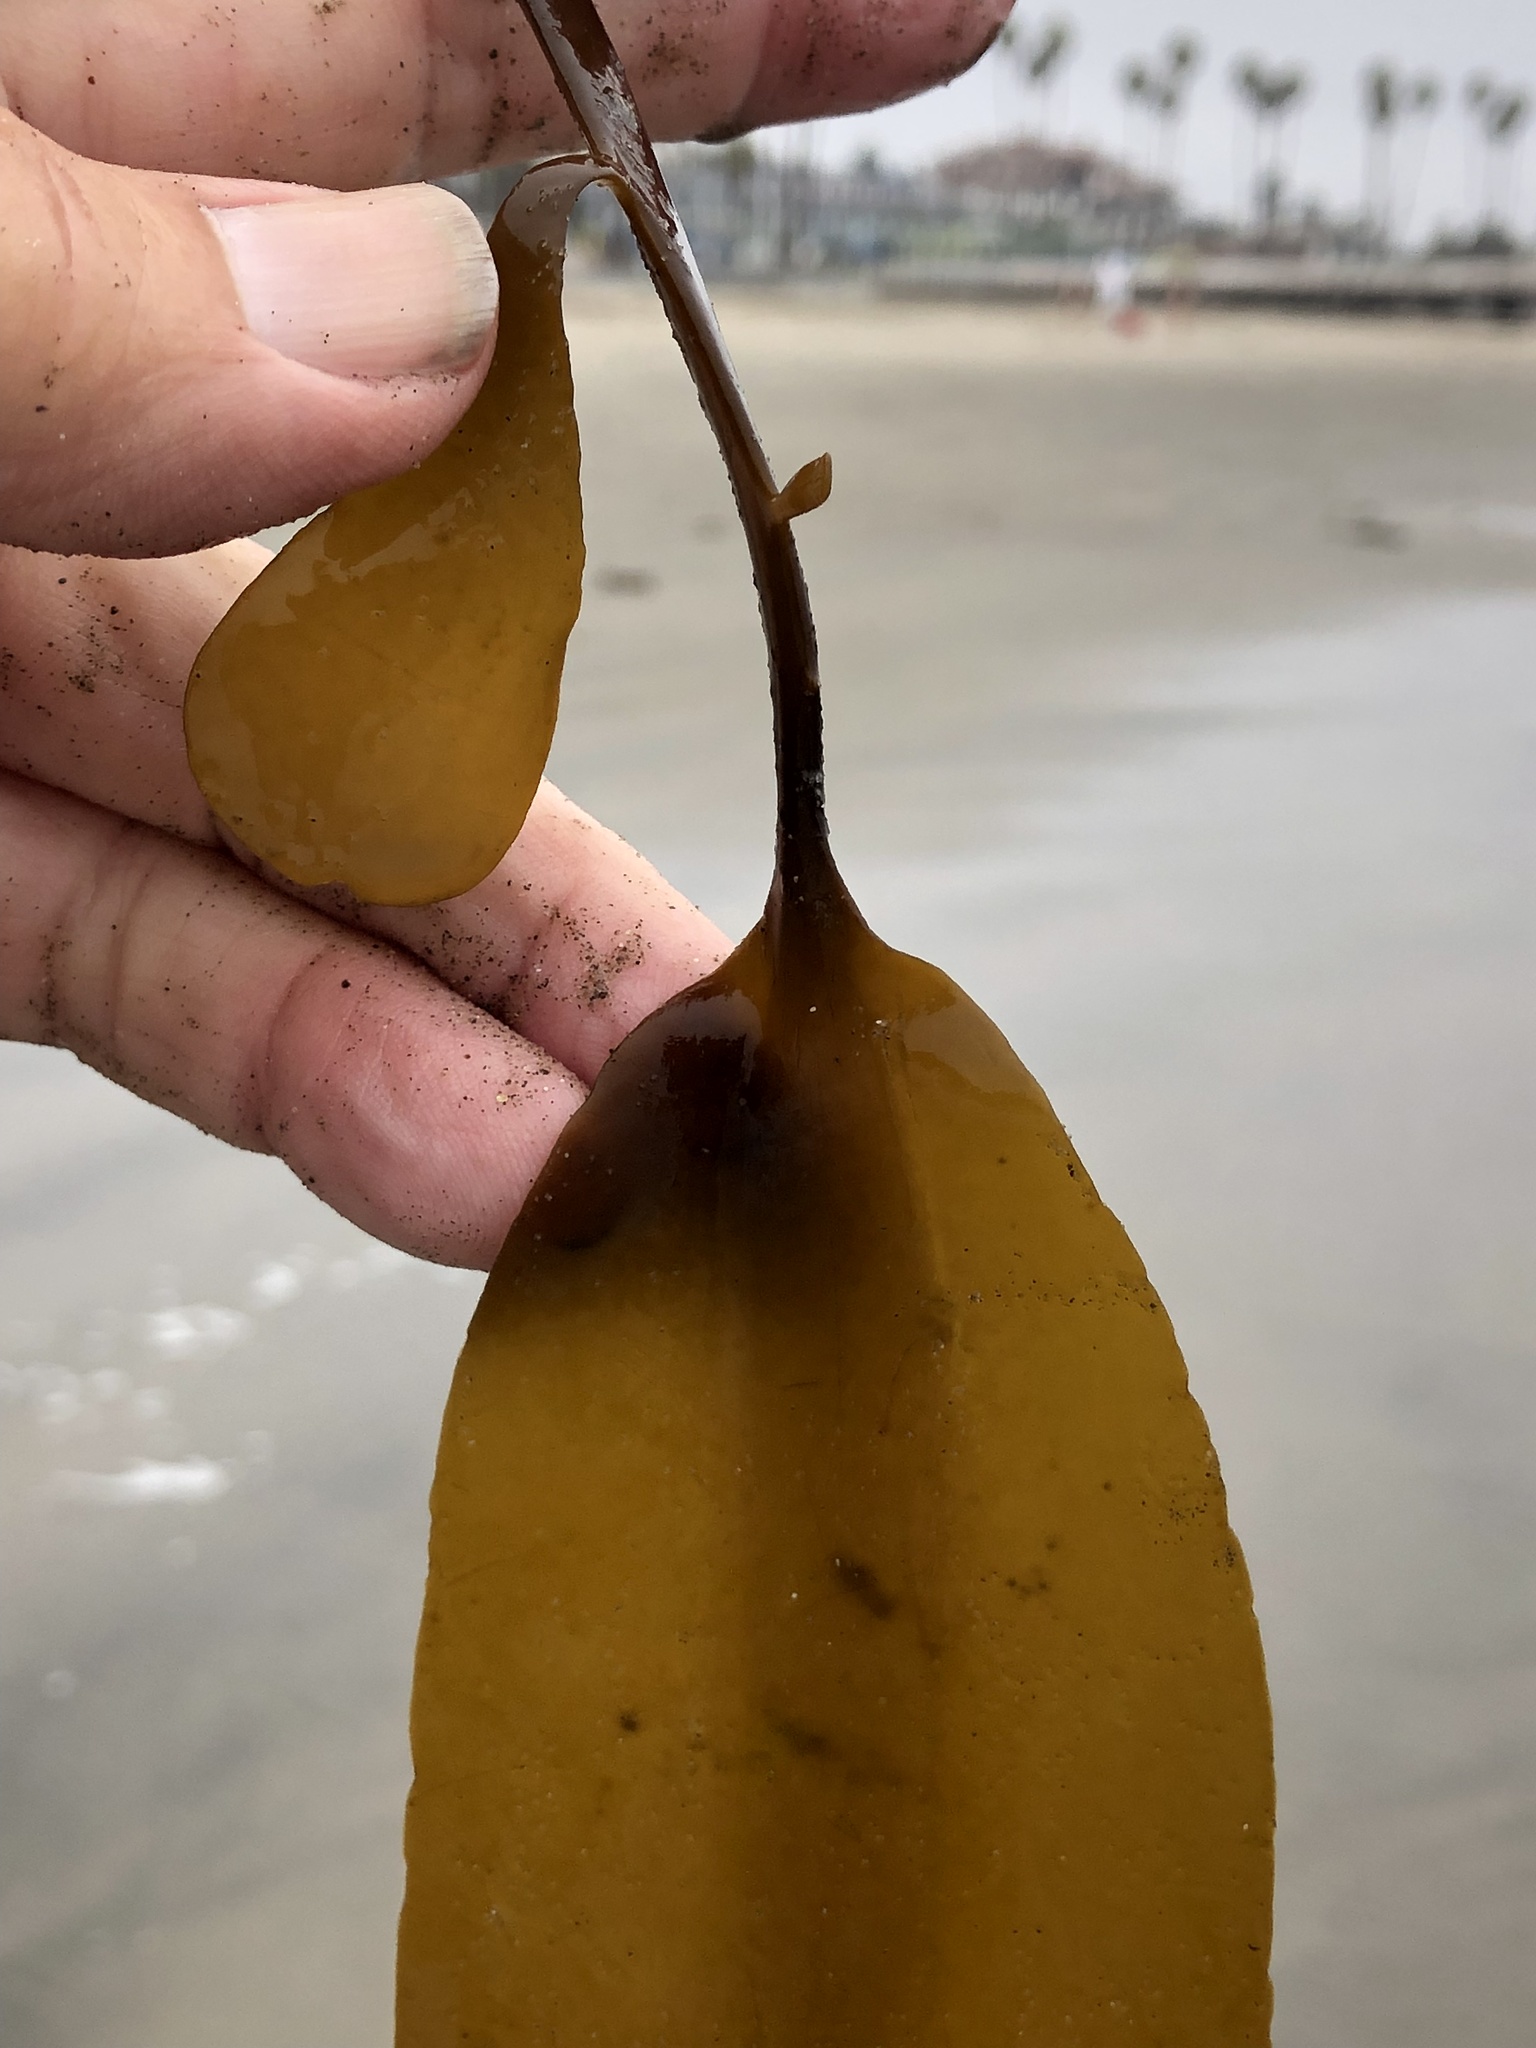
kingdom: Chromista
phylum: Ochrophyta
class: Phaeophyceae
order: Laminariales
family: Alariaceae
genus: Pterygophora
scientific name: Pterygophora californica
